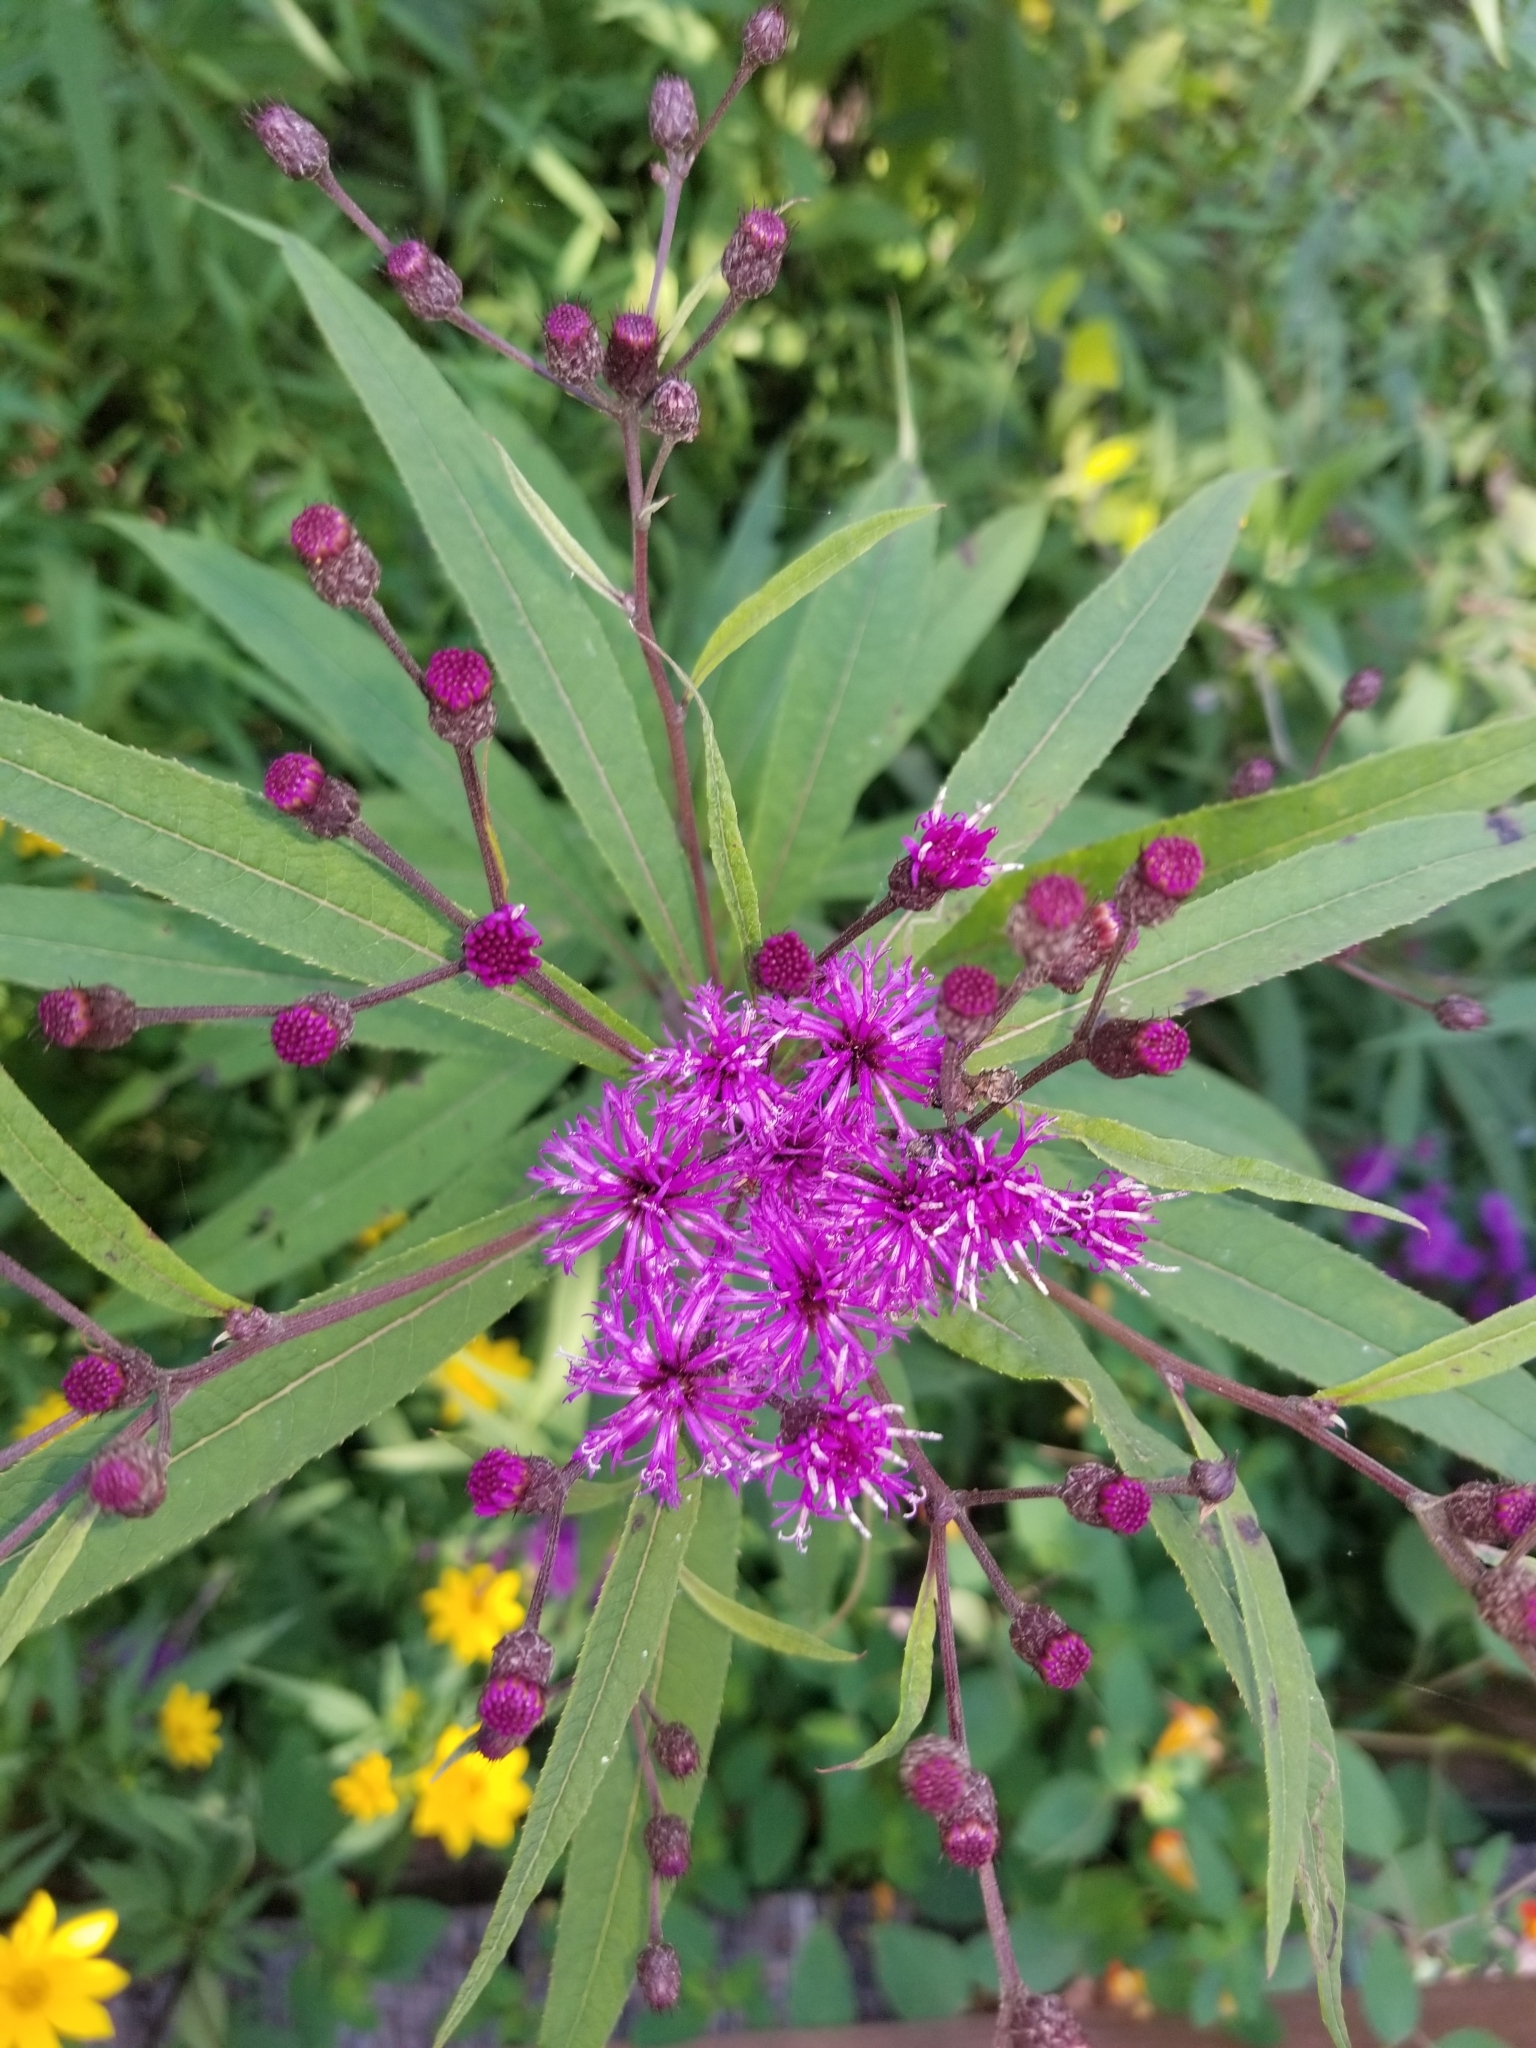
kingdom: Plantae
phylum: Tracheophyta
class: Magnoliopsida
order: Asterales
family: Asteraceae
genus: Vernonia
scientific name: Vernonia gigantea
